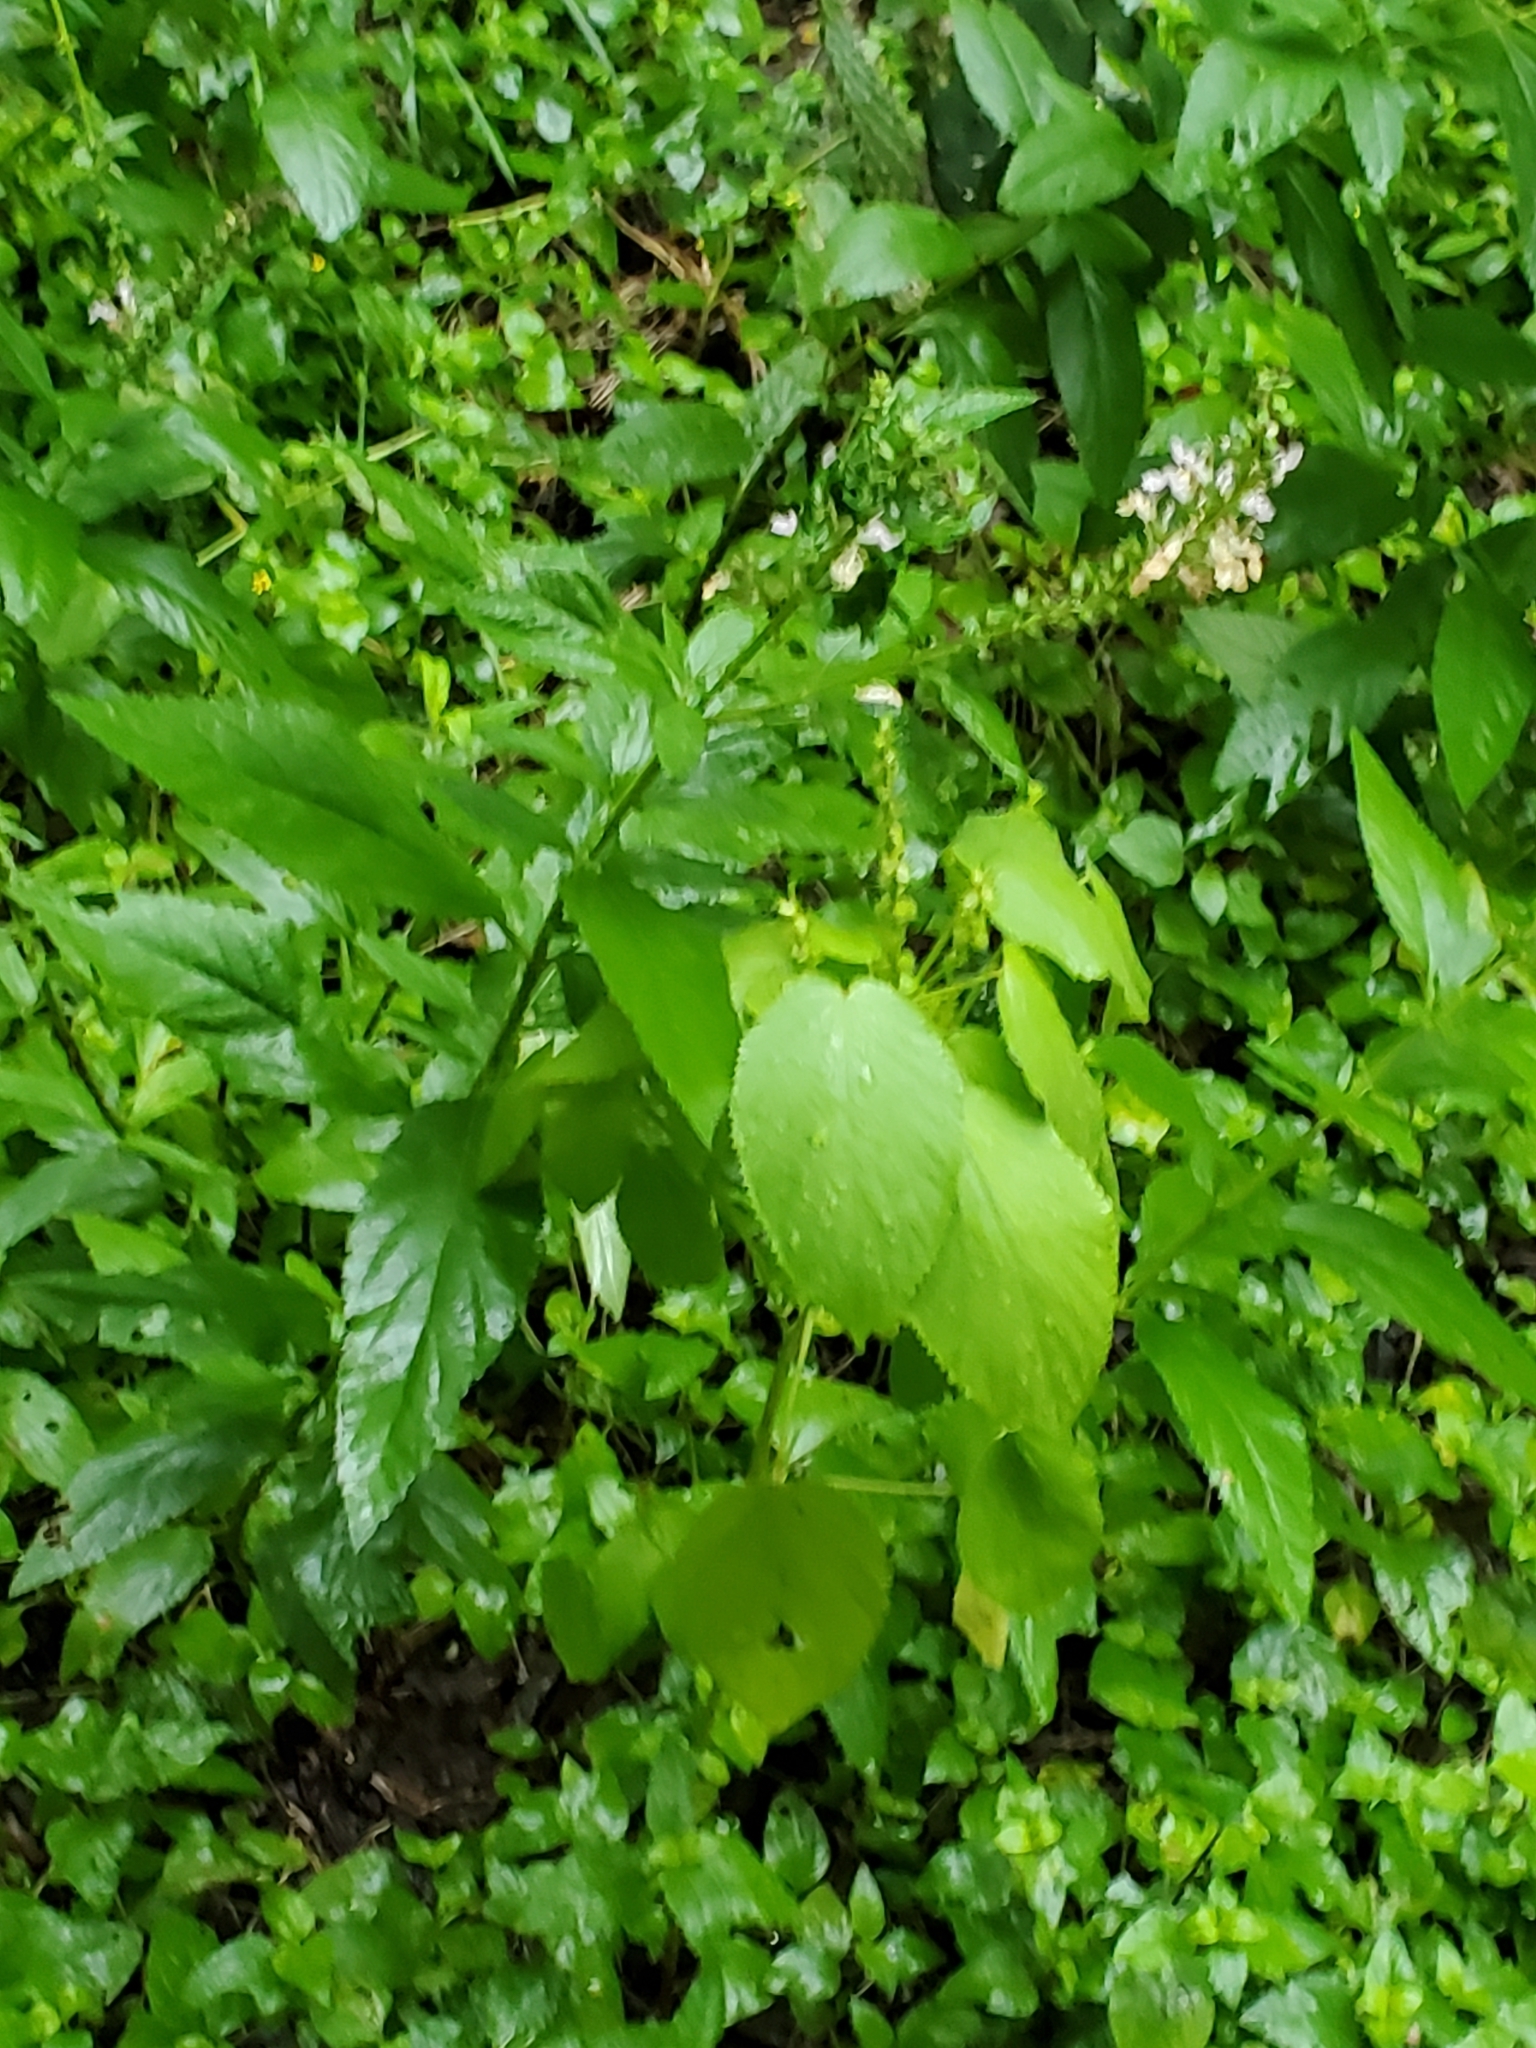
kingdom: Plantae
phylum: Tracheophyta
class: Magnoliopsida
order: Lamiales
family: Lamiaceae
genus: Teucrium
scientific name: Teucrium canadense
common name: American germander
